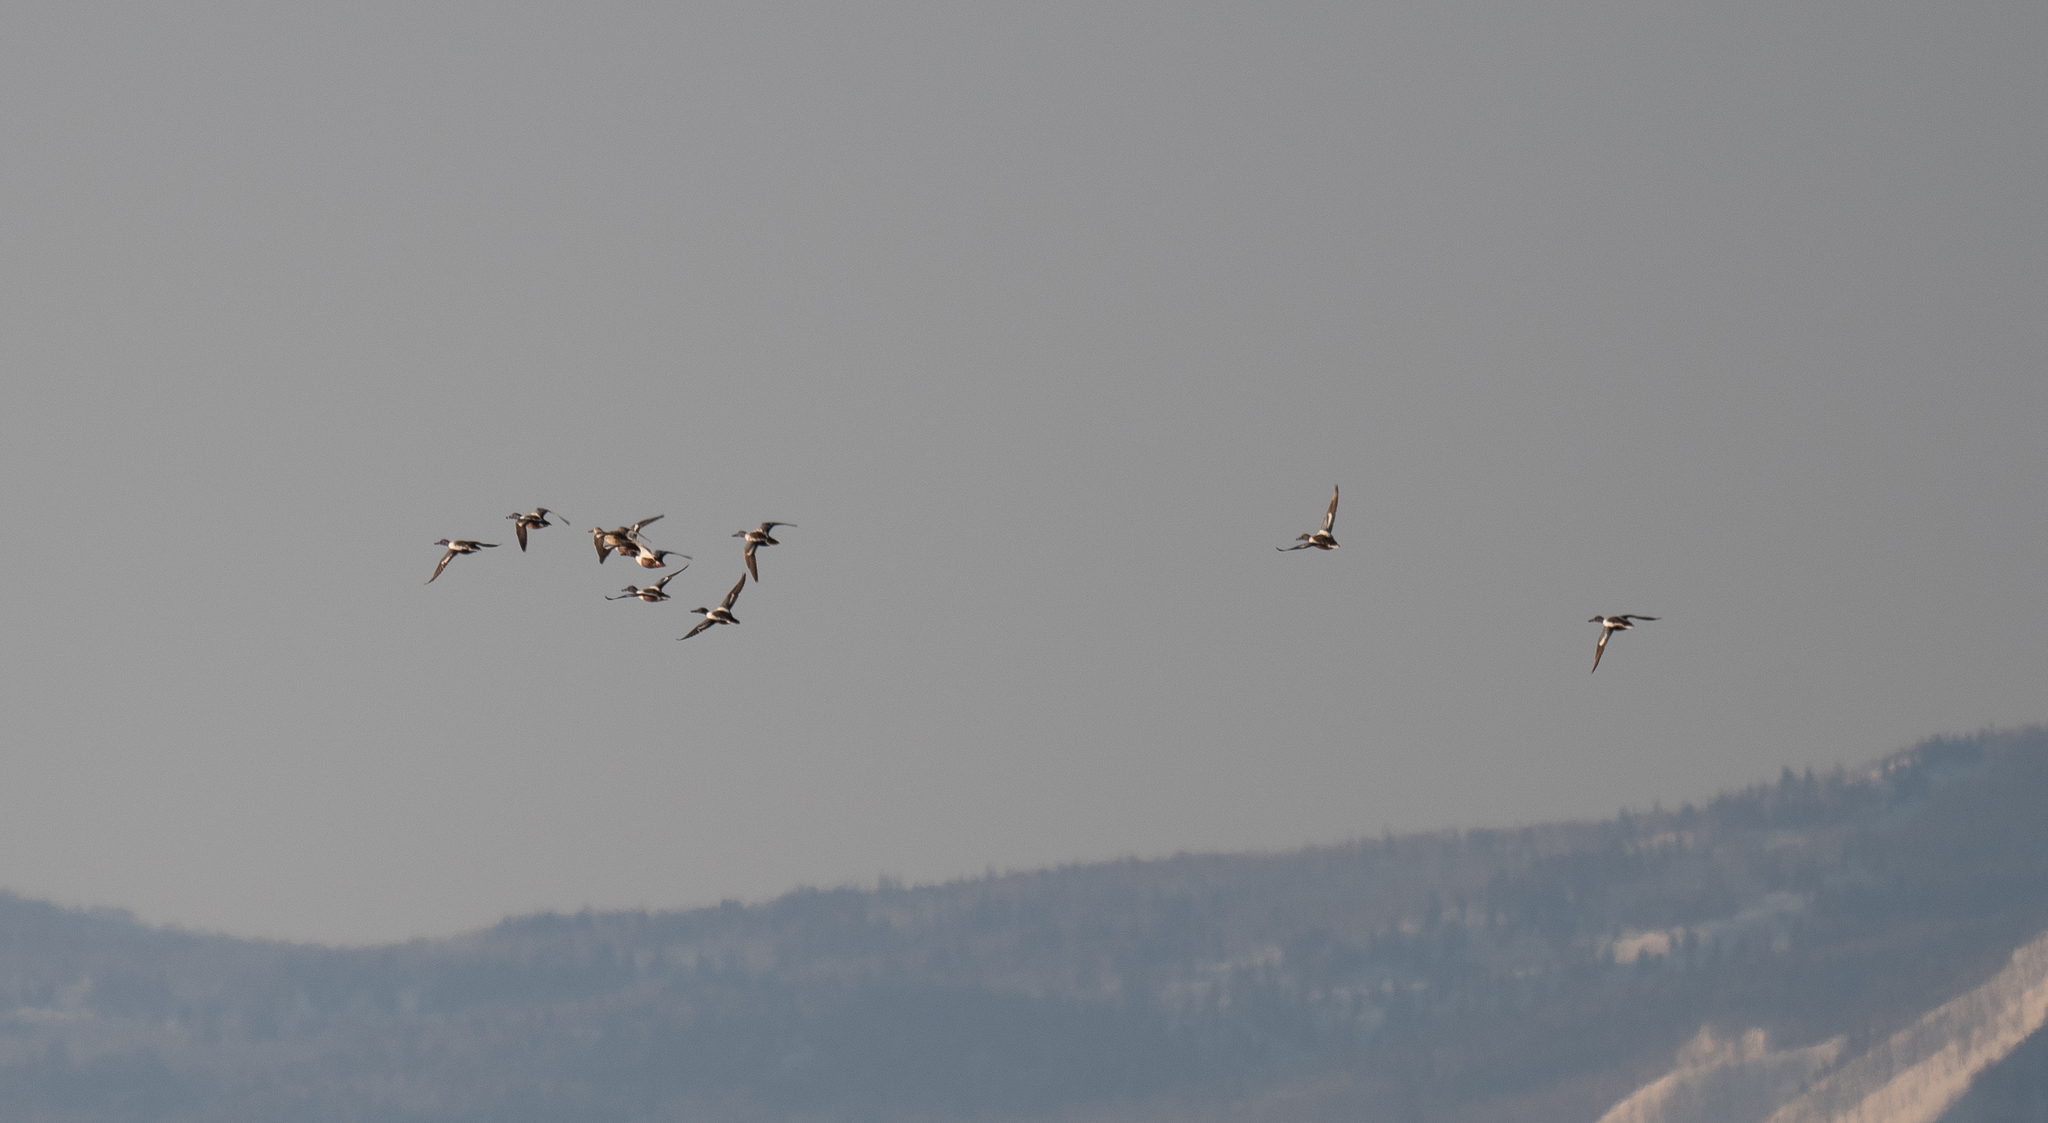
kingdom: Animalia
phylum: Chordata
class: Aves
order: Anseriformes
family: Anatidae
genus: Spatula
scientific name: Spatula clypeata
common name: Northern shoveler
